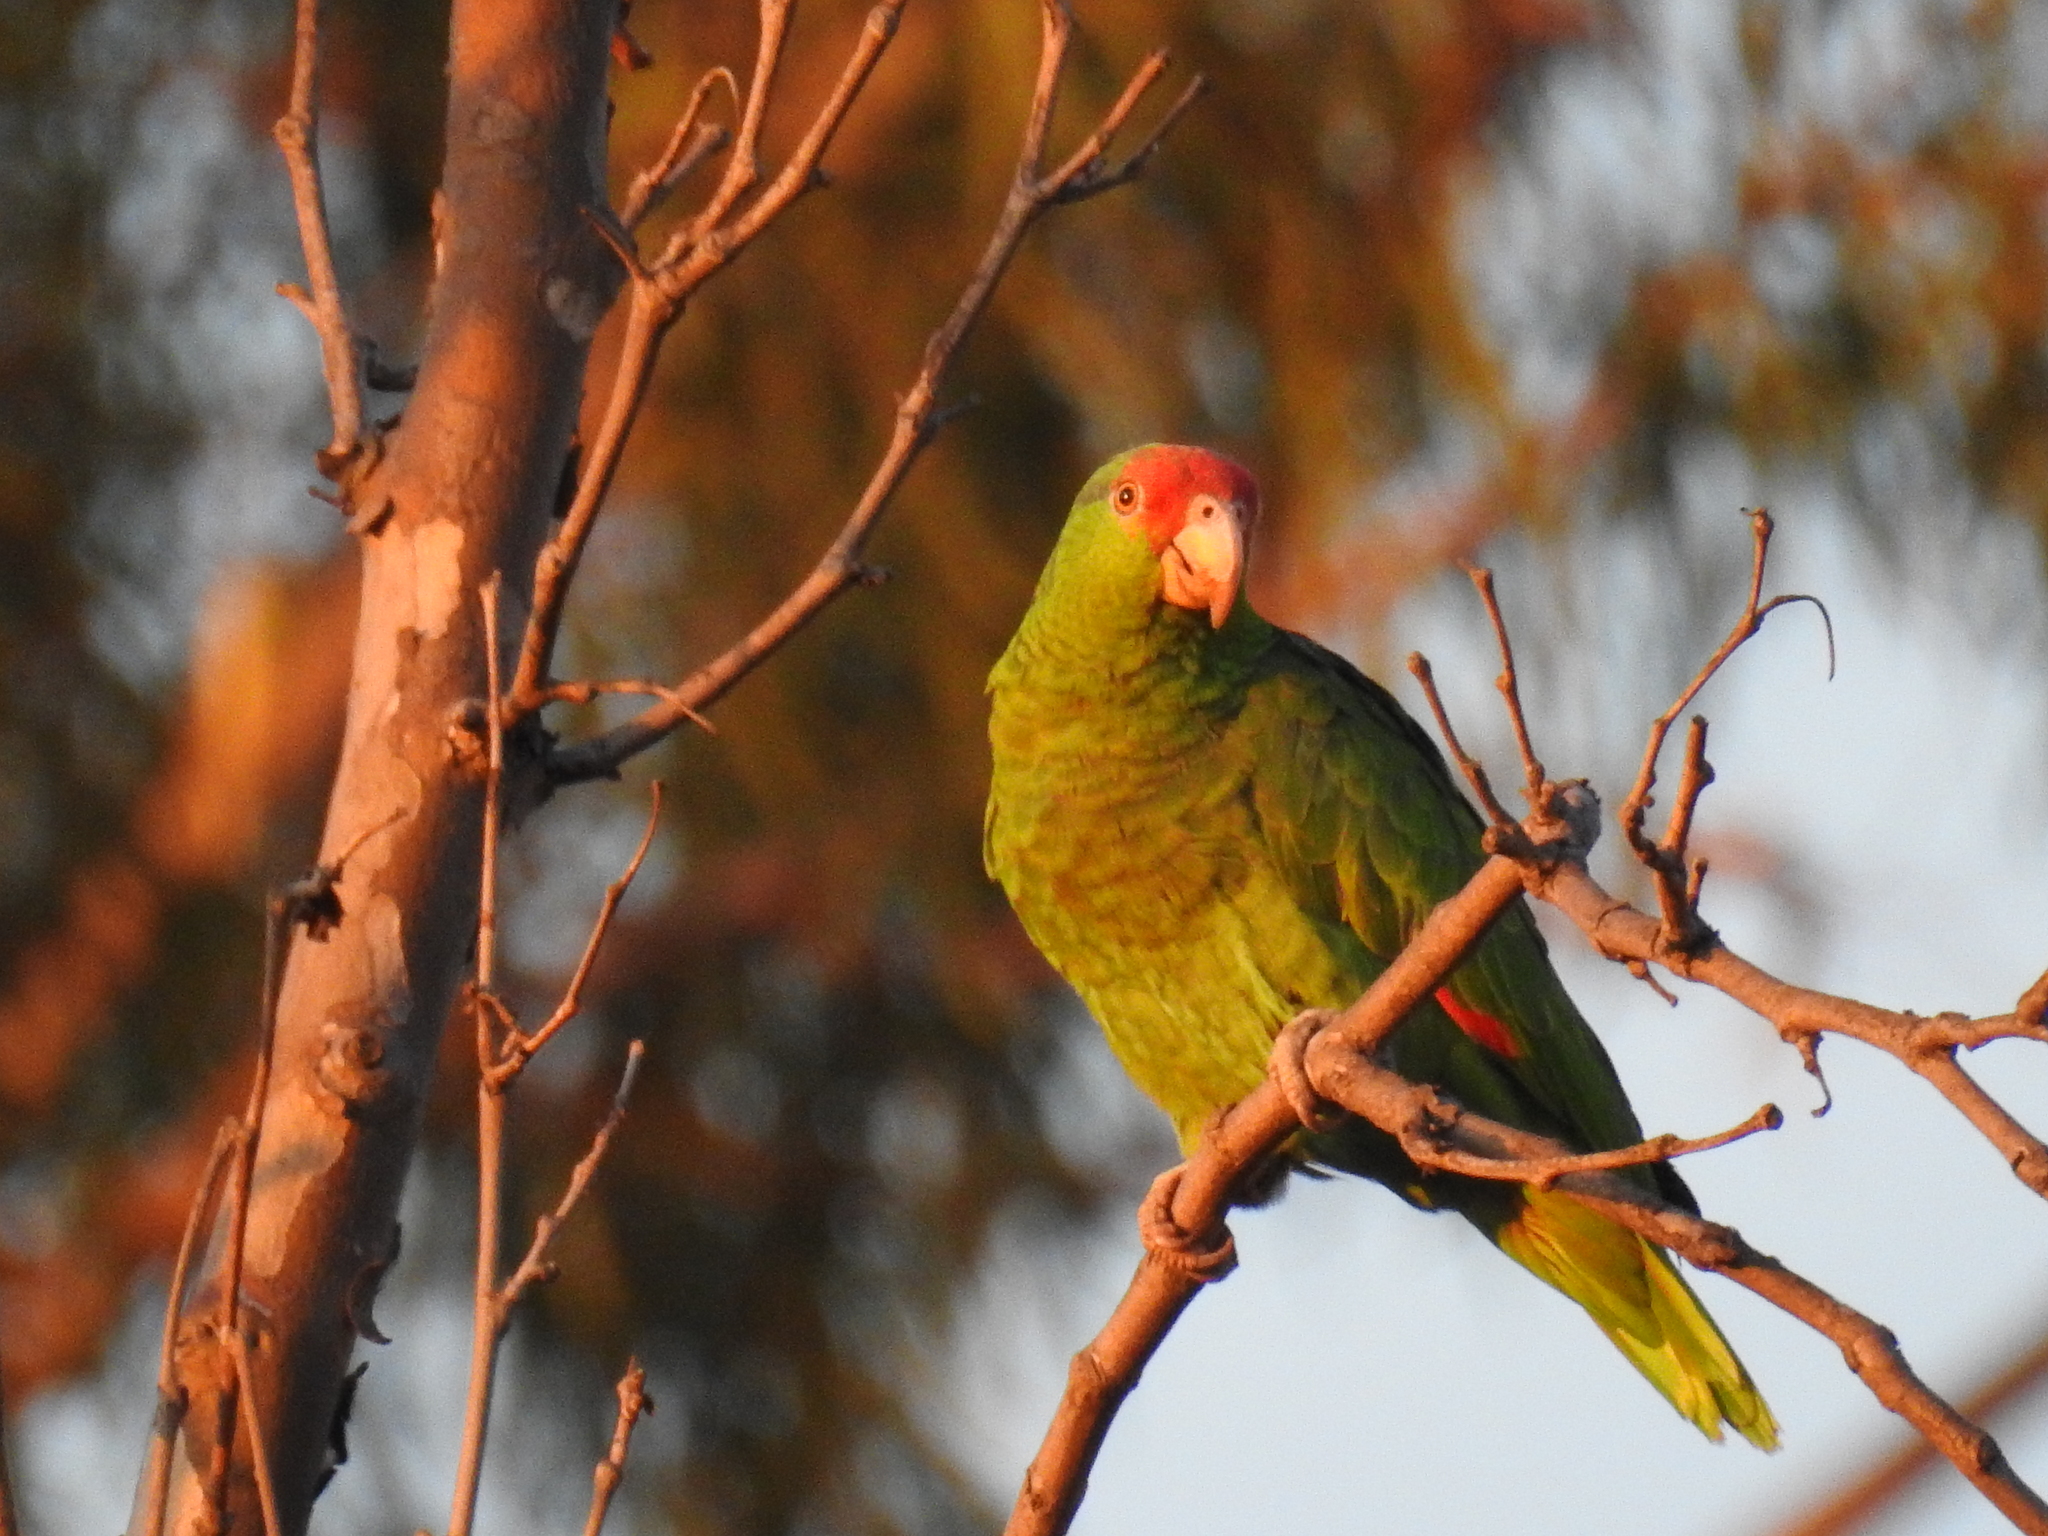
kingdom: Animalia
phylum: Chordata
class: Aves
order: Psittaciformes
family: Psittacidae
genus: Amazona
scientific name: Amazona viridigenalis
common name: Red-crowned amazon
